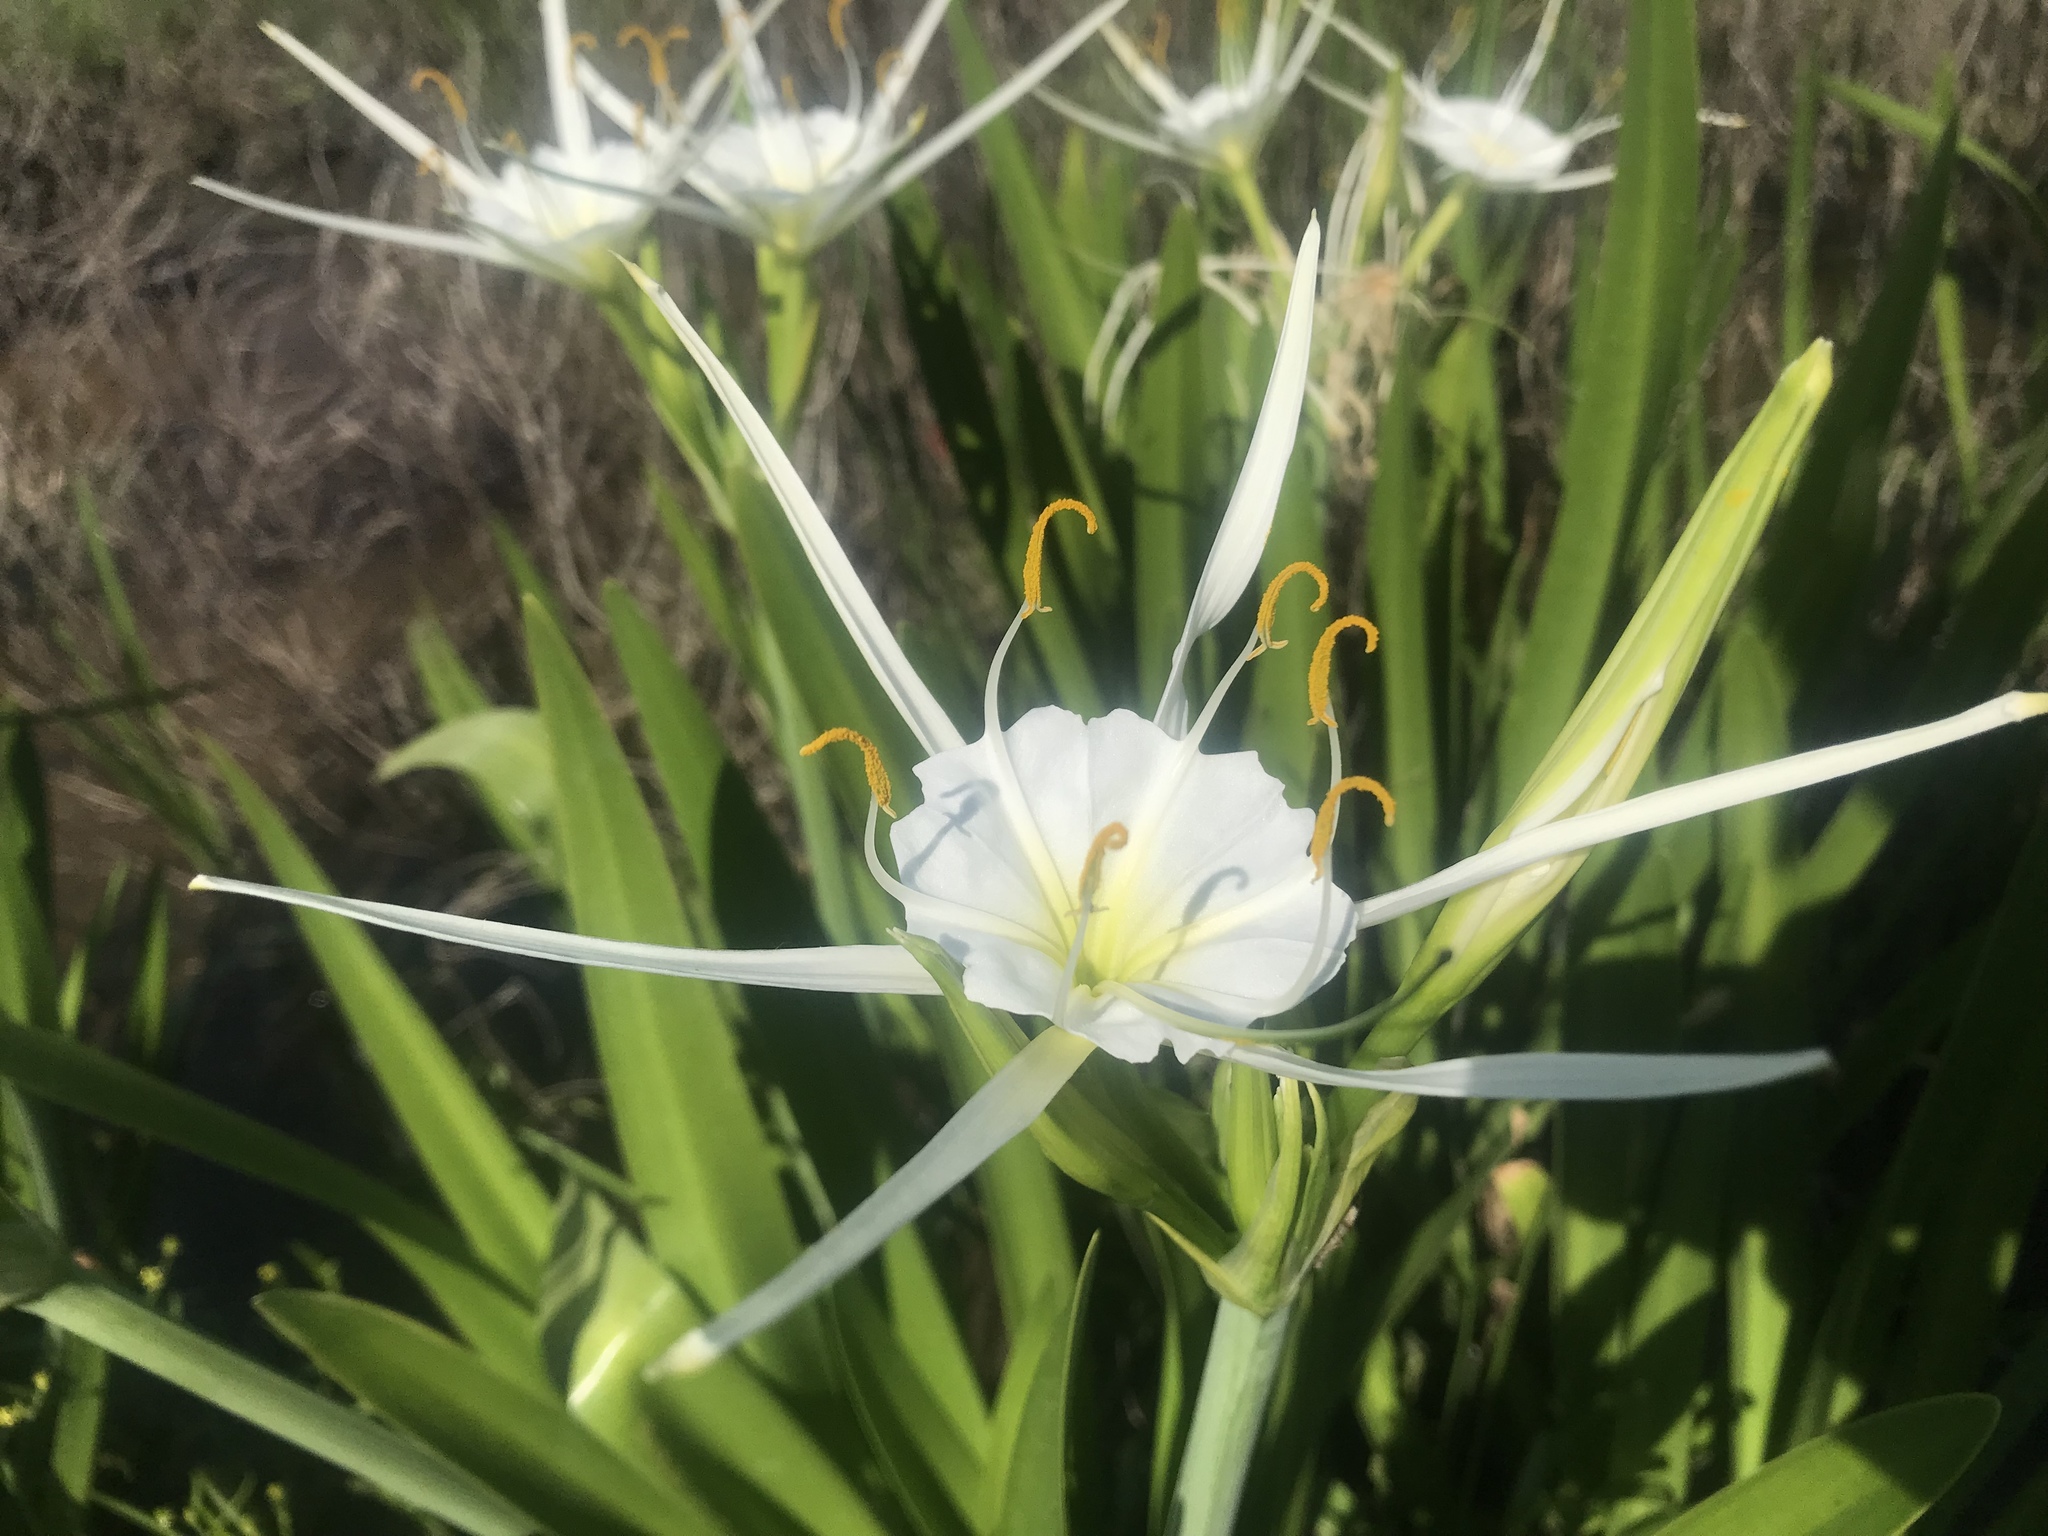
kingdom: Plantae
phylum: Tracheophyta
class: Liliopsida
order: Asparagales
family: Amaryllidaceae
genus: Hymenocallis
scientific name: Hymenocallis liriosme
